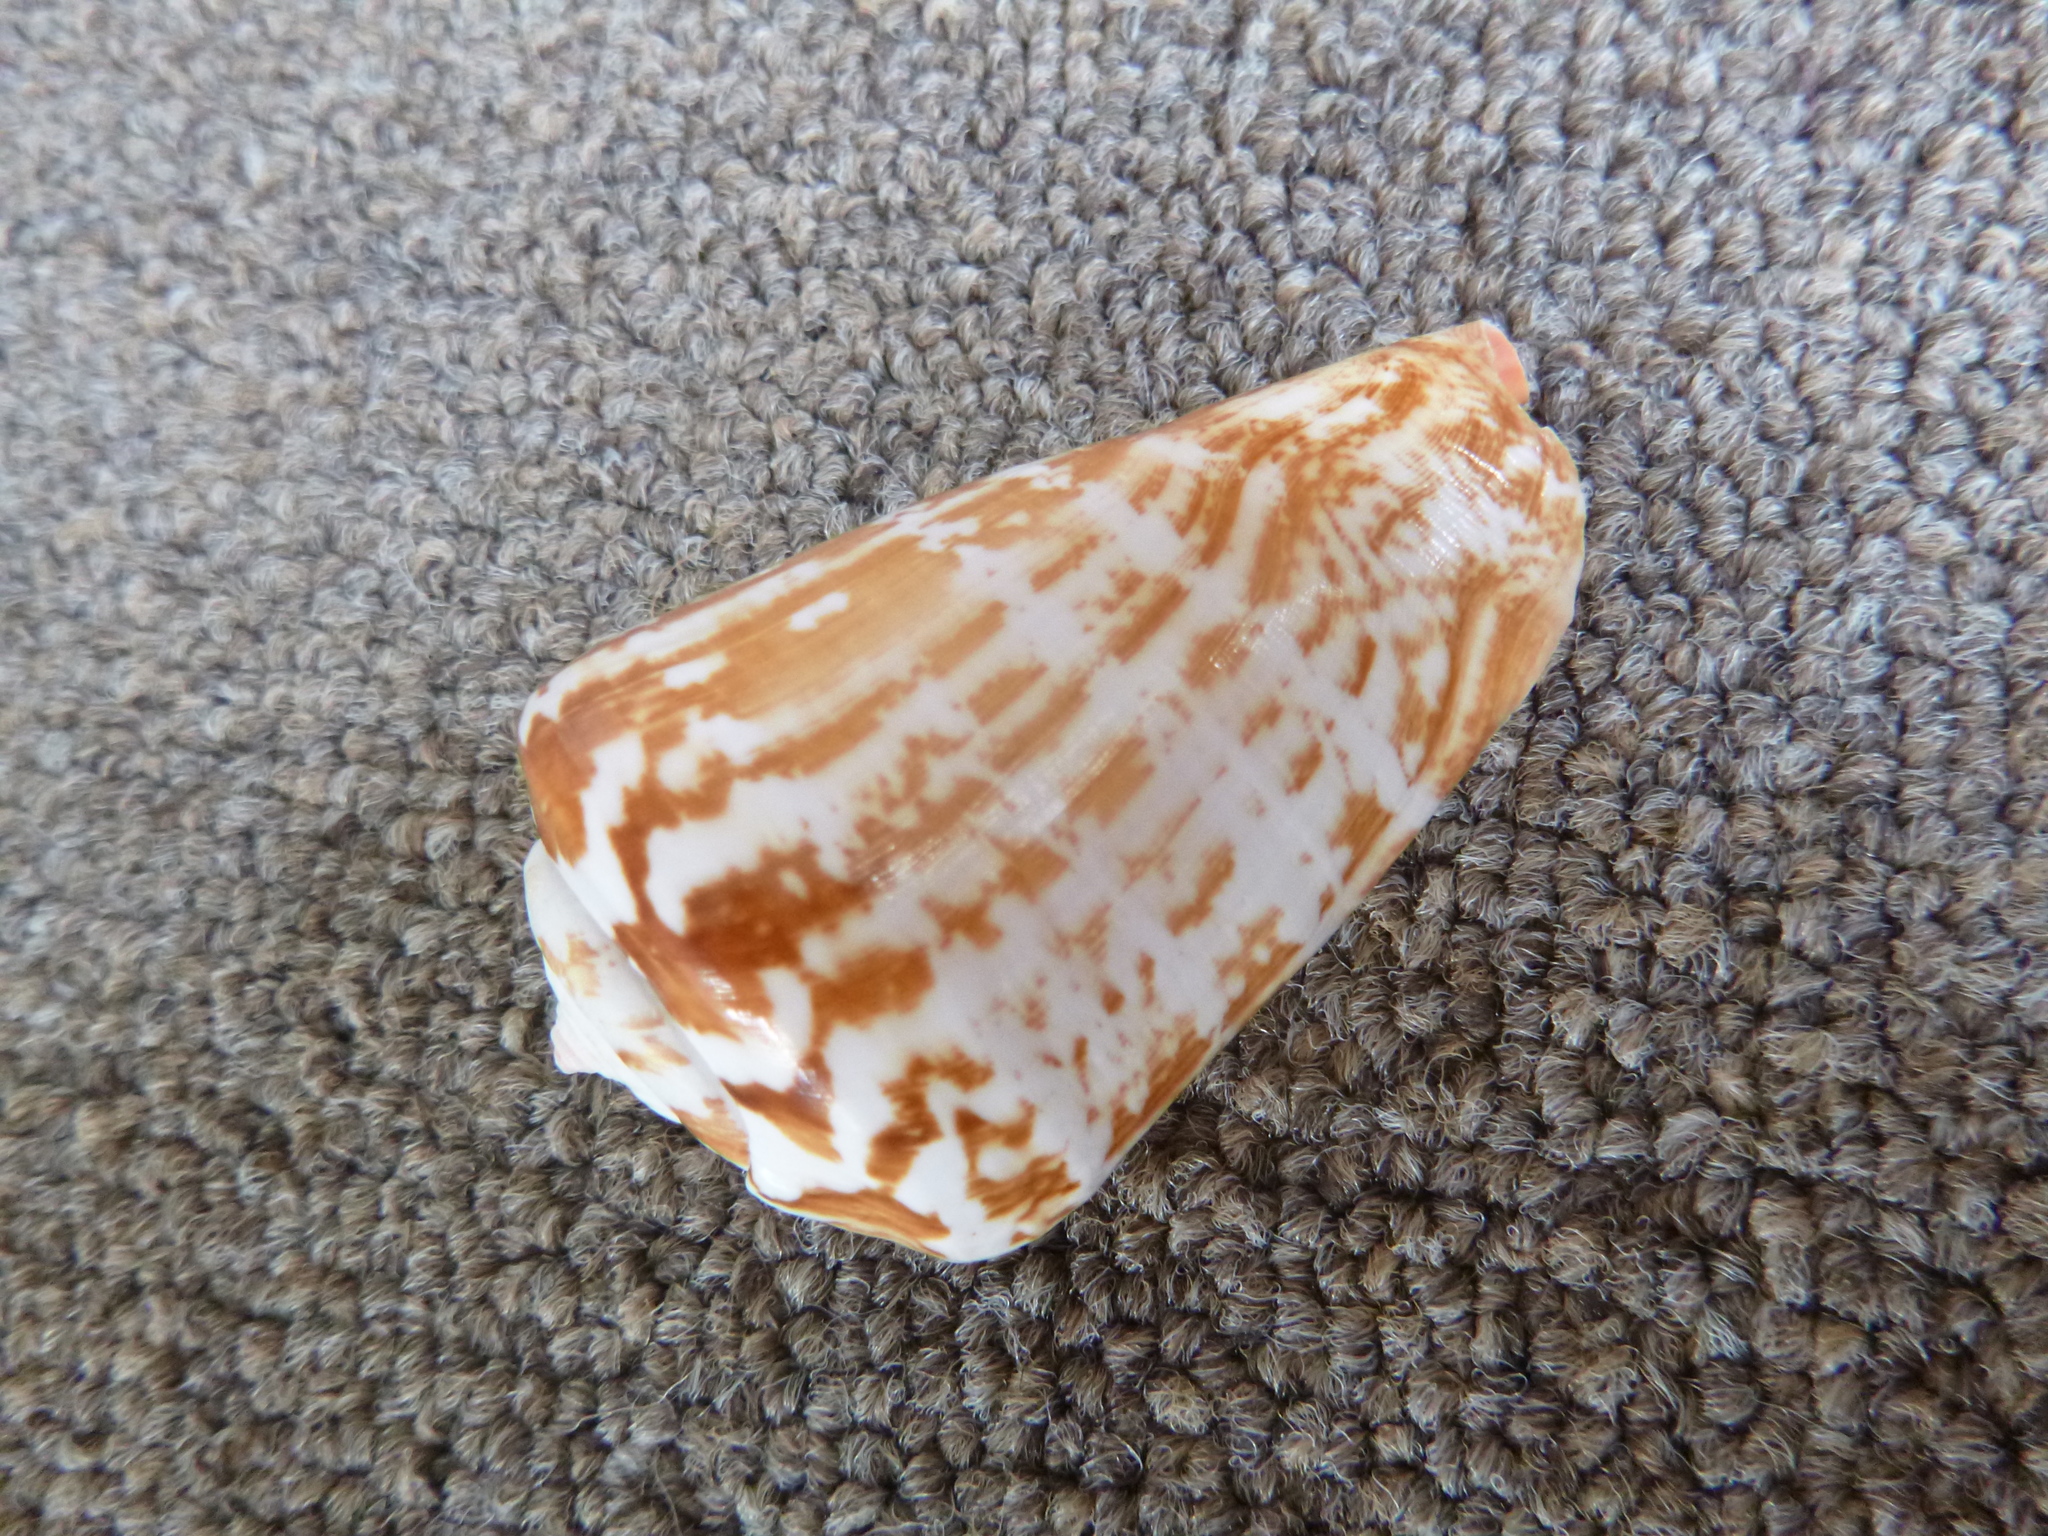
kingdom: Animalia
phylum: Mollusca
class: Gastropoda
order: Littorinimorpha
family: Strombidae
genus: Conomurex
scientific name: Conomurex luhuanus
